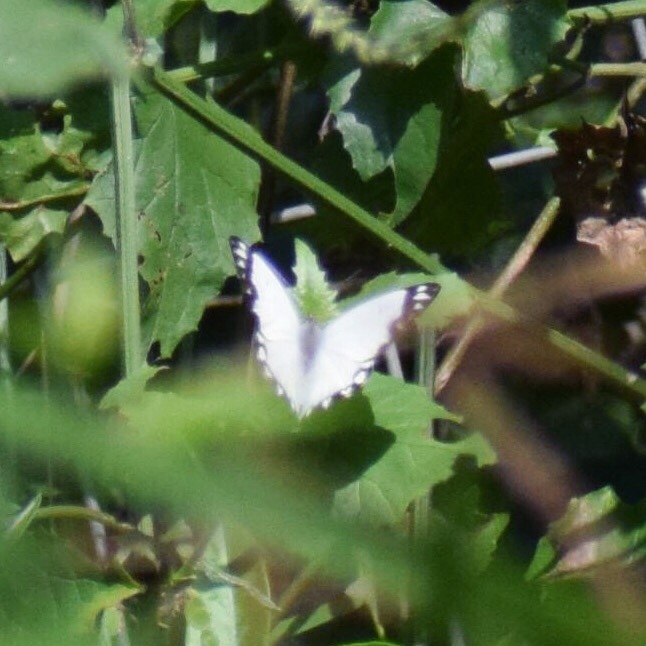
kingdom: Animalia
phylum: Arthropoda
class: Insecta
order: Lepidoptera
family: Pieridae
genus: Belenois
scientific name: Belenois creona
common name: African caper white
